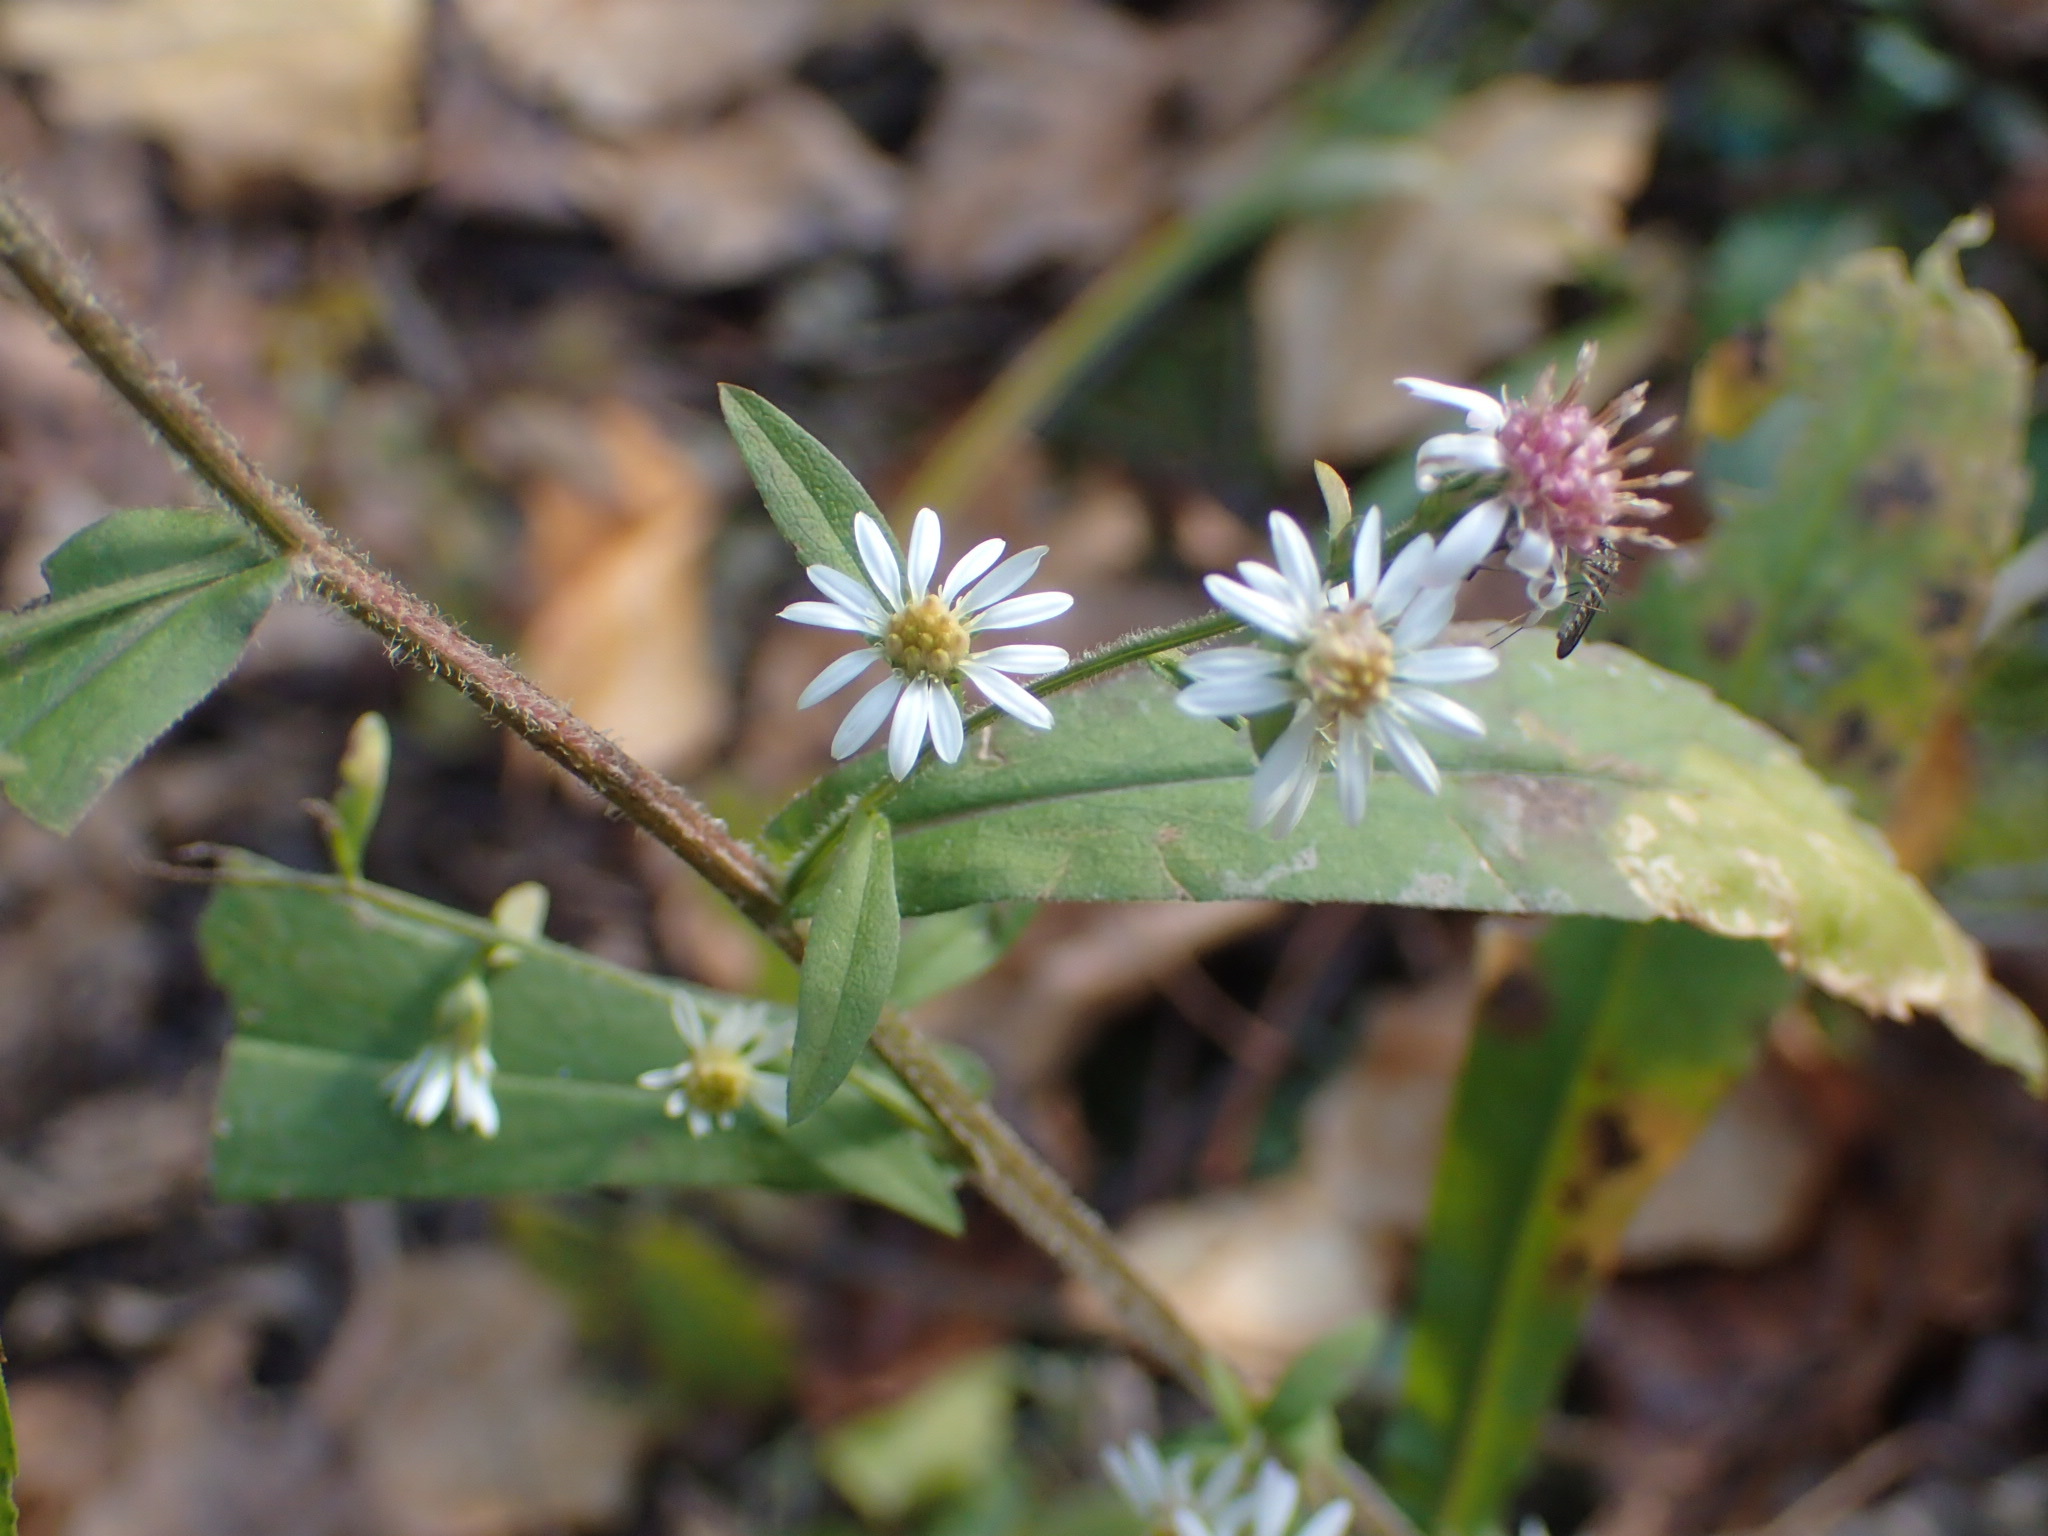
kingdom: Plantae
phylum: Tracheophyta
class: Magnoliopsida
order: Asterales
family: Asteraceae
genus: Symphyotrichum
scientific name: Symphyotrichum lateriflorum
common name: Calico aster
